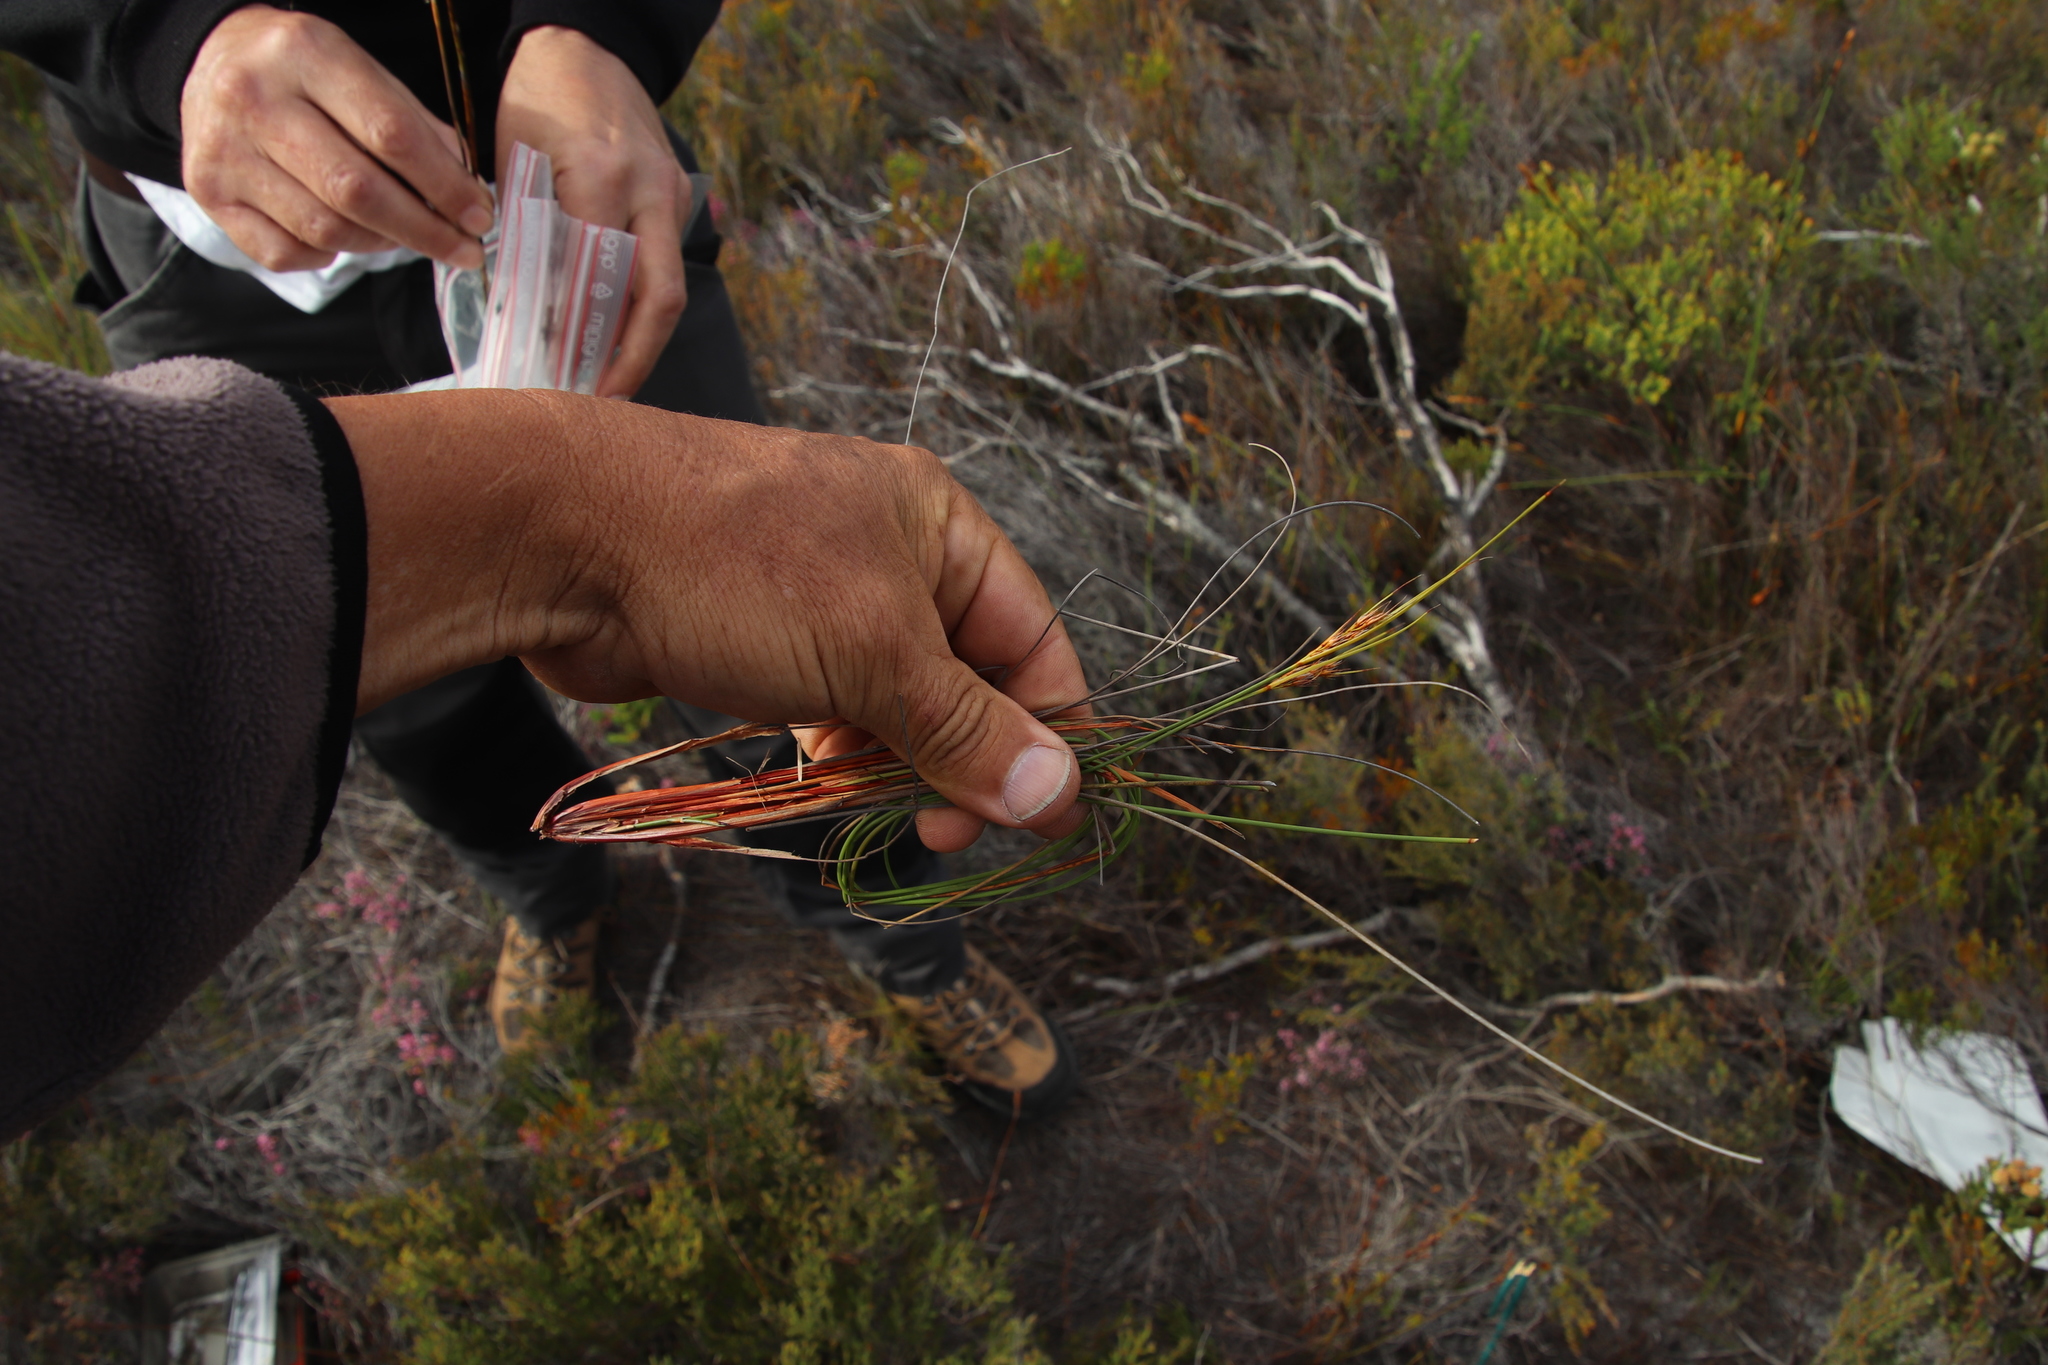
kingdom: Plantae
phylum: Tracheophyta
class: Liliopsida
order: Poales
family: Cyperaceae
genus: Schoenus
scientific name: Schoenus compactus
